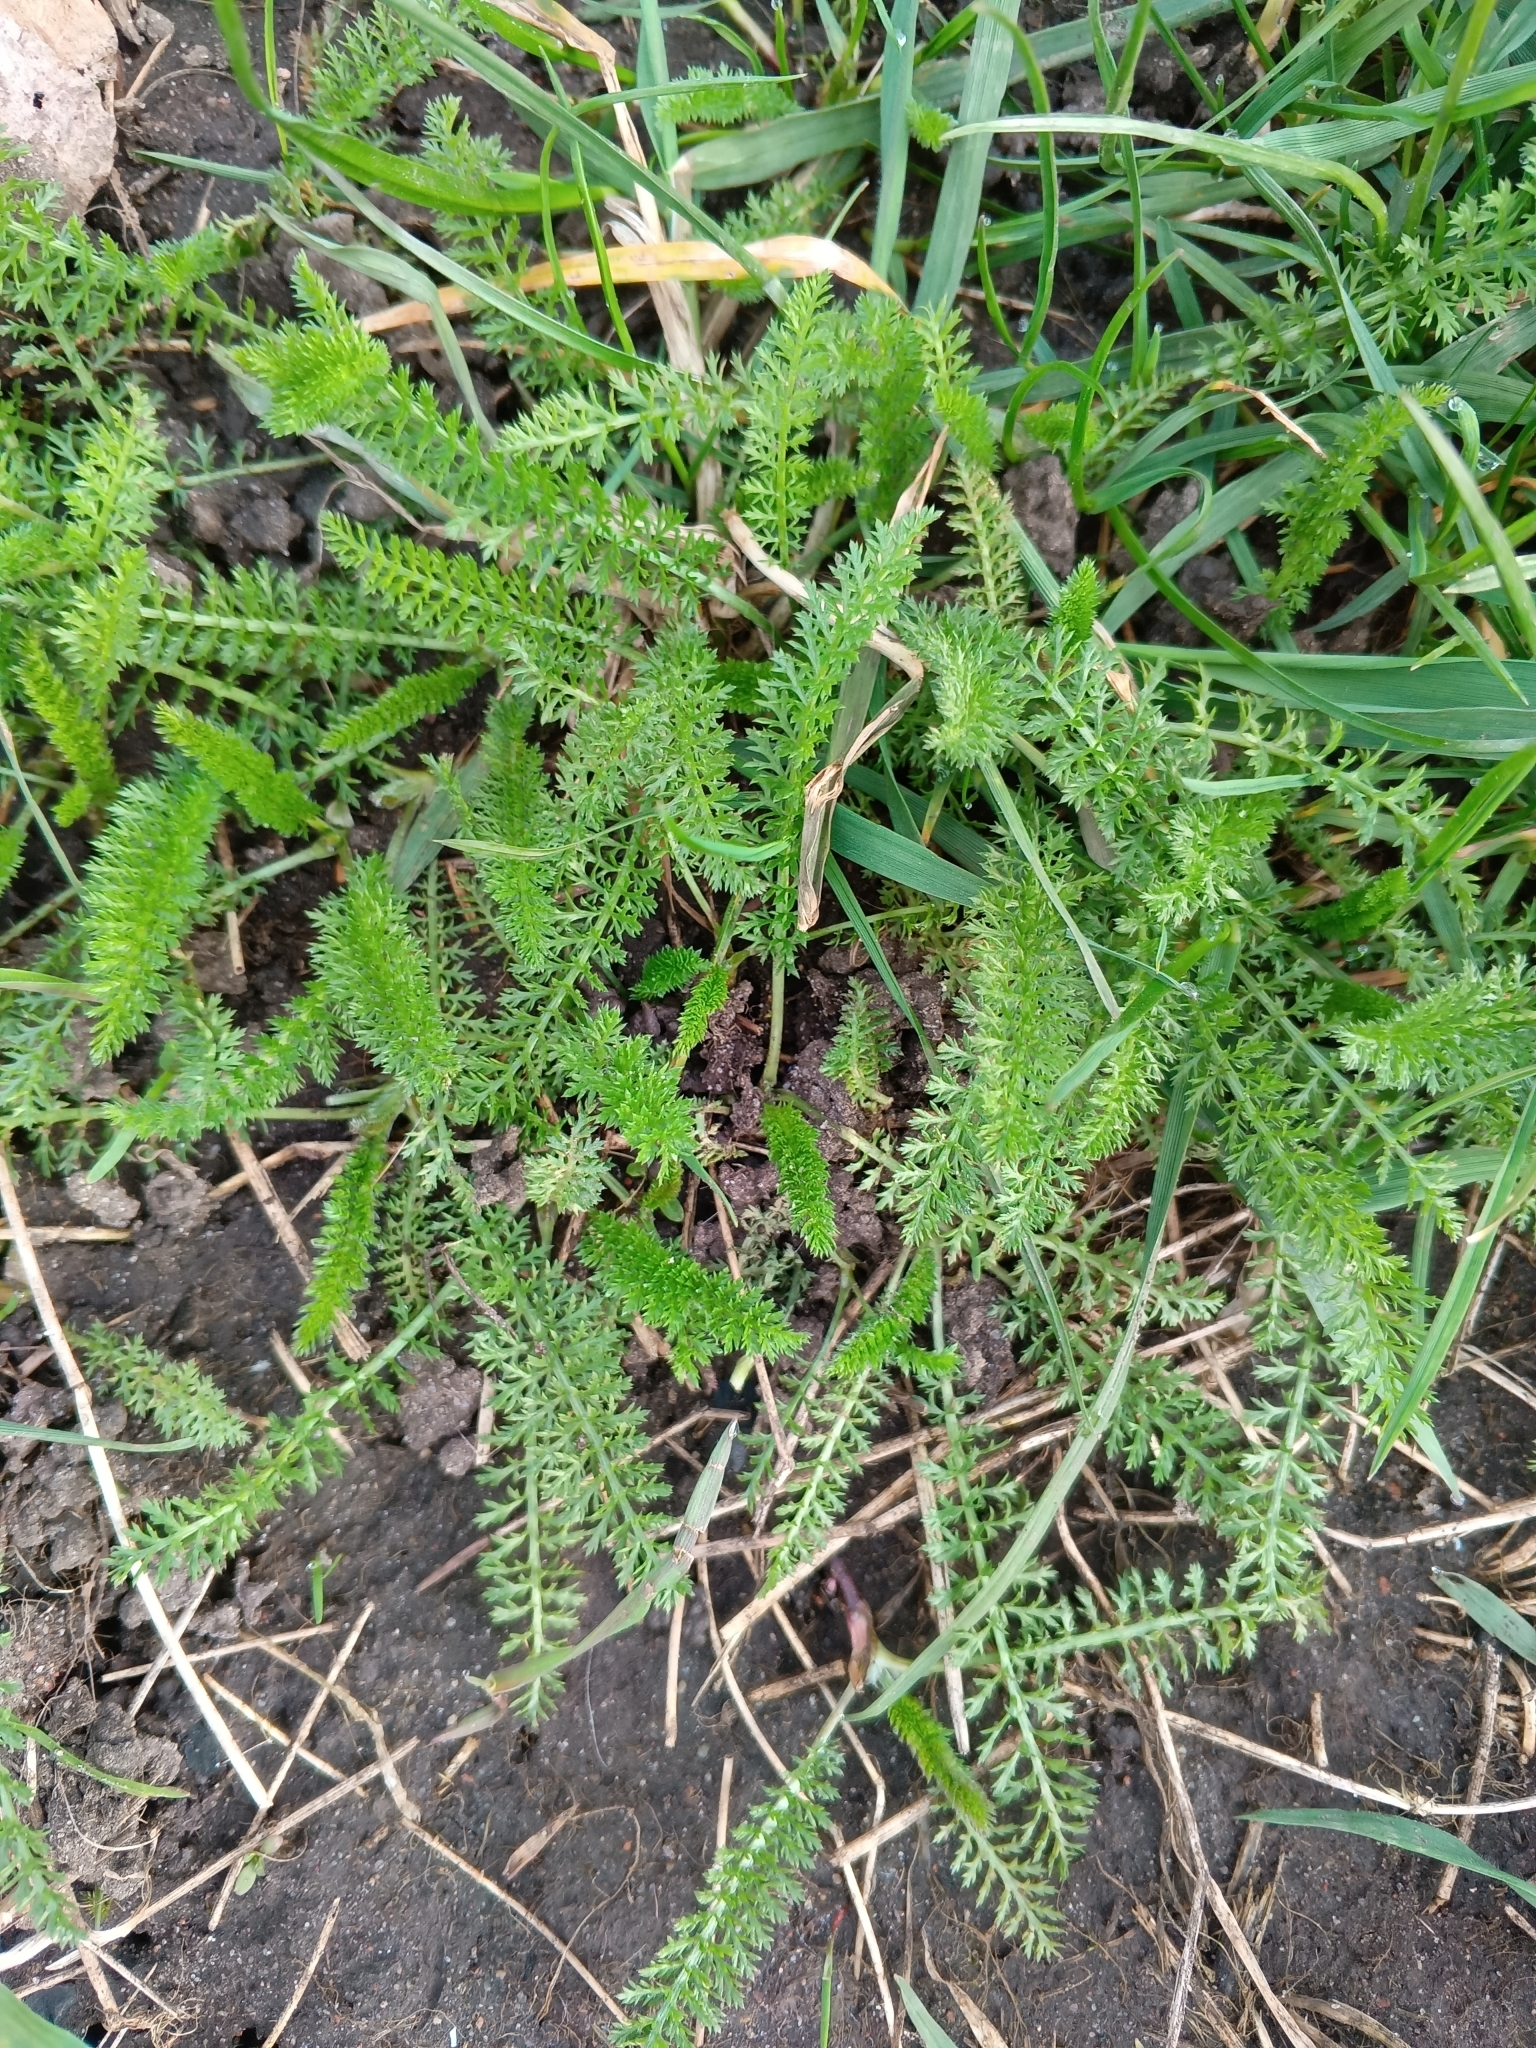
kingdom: Plantae
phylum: Tracheophyta
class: Magnoliopsida
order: Asterales
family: Asteraceae
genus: Achillea
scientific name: Achillea millefolium
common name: Yarrow
